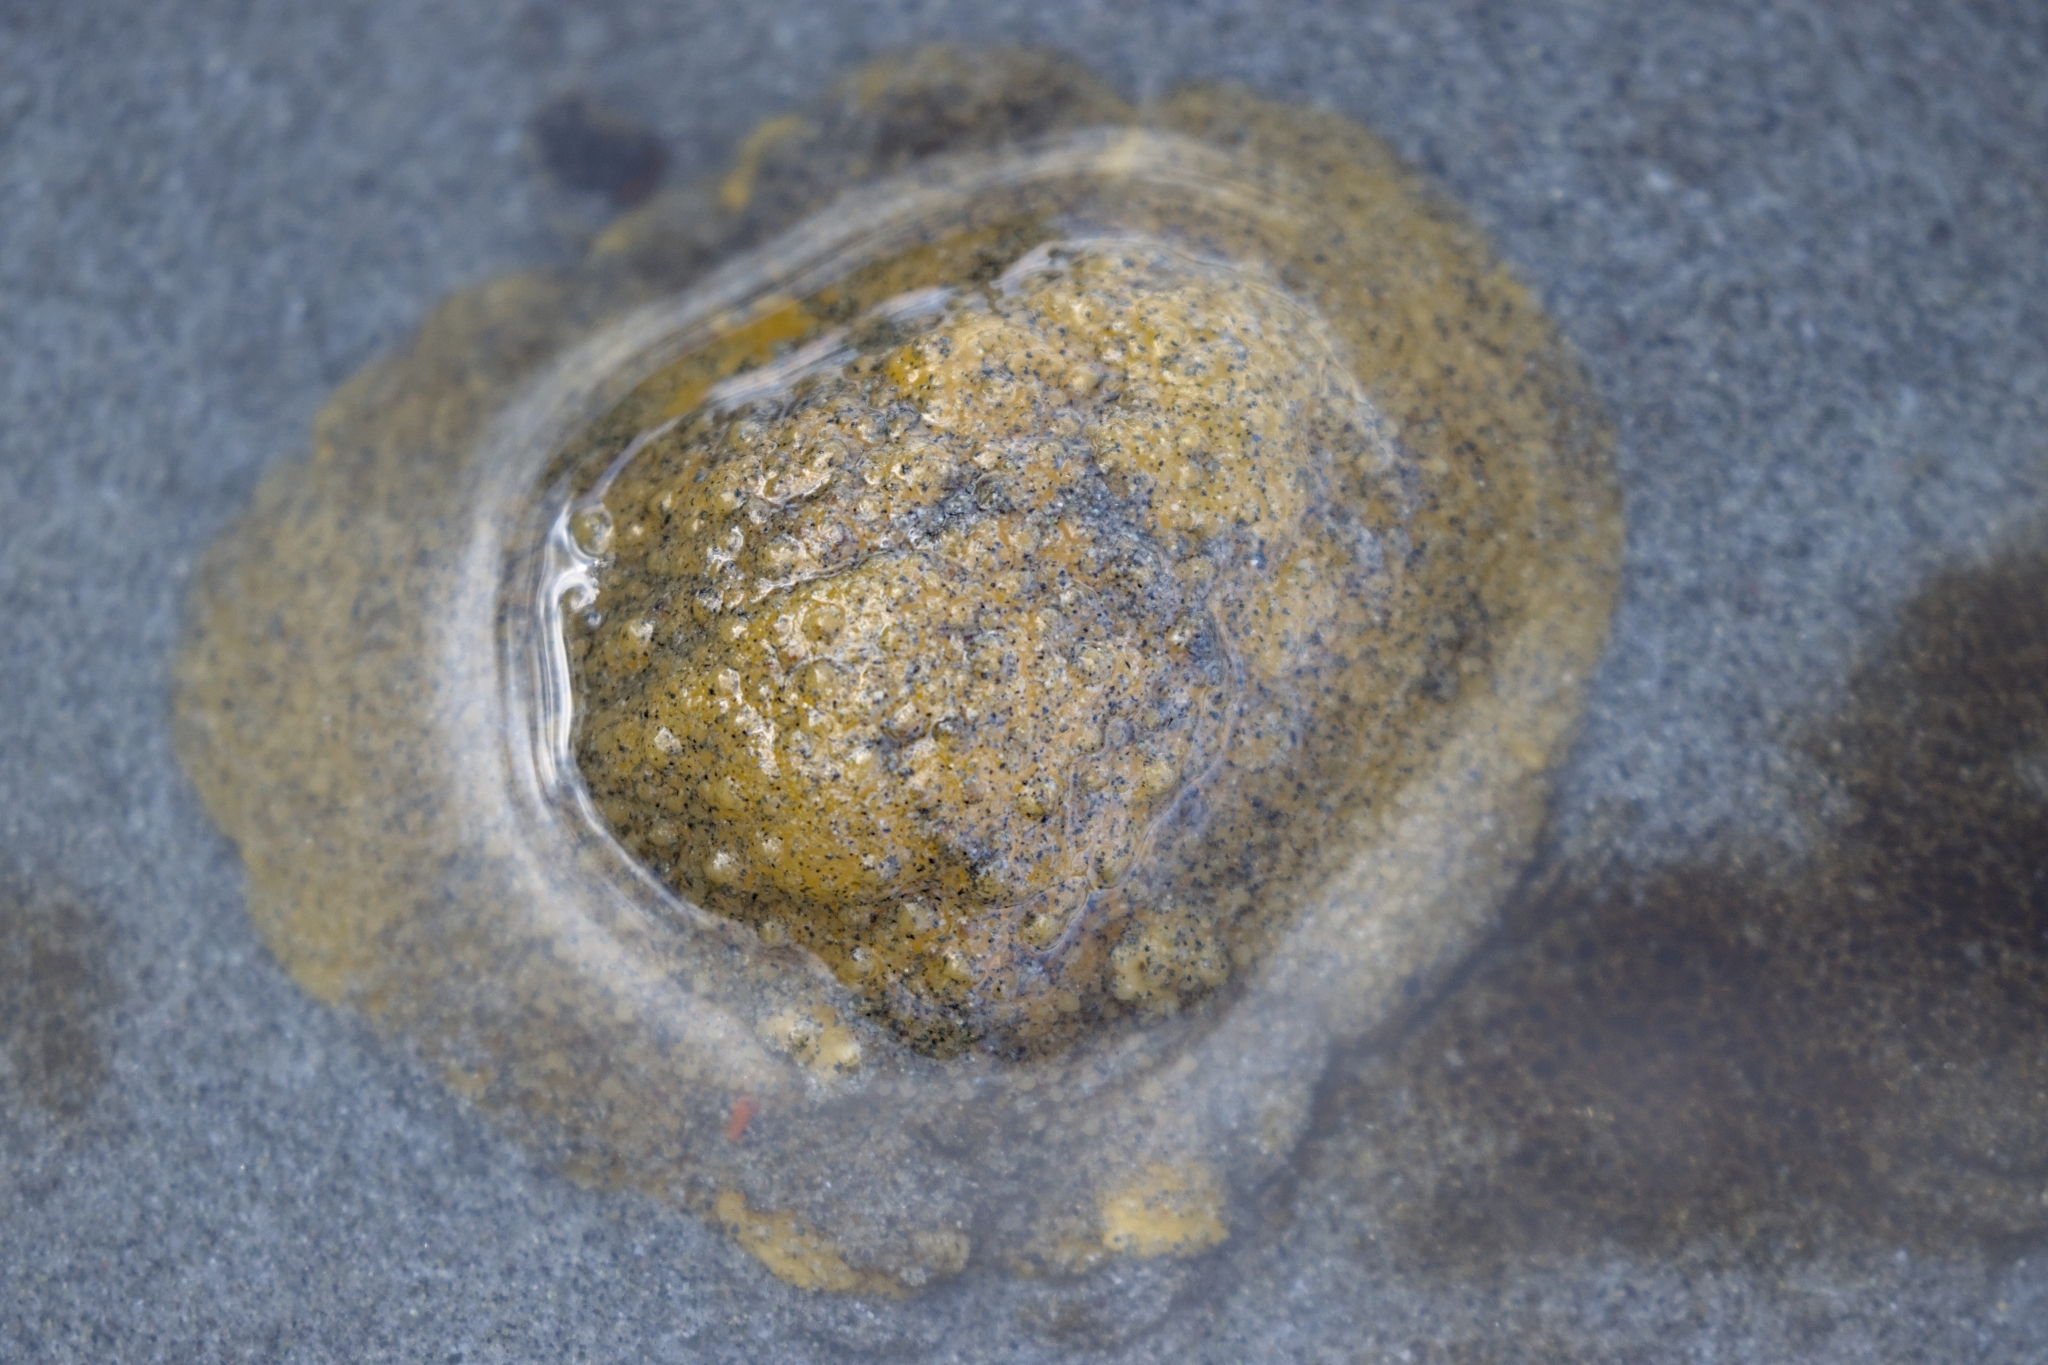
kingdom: Animalia
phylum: Mollusca
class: Gastropoda
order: Nudibranchia
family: Dorididae
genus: Doris
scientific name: Doris montereyensis
